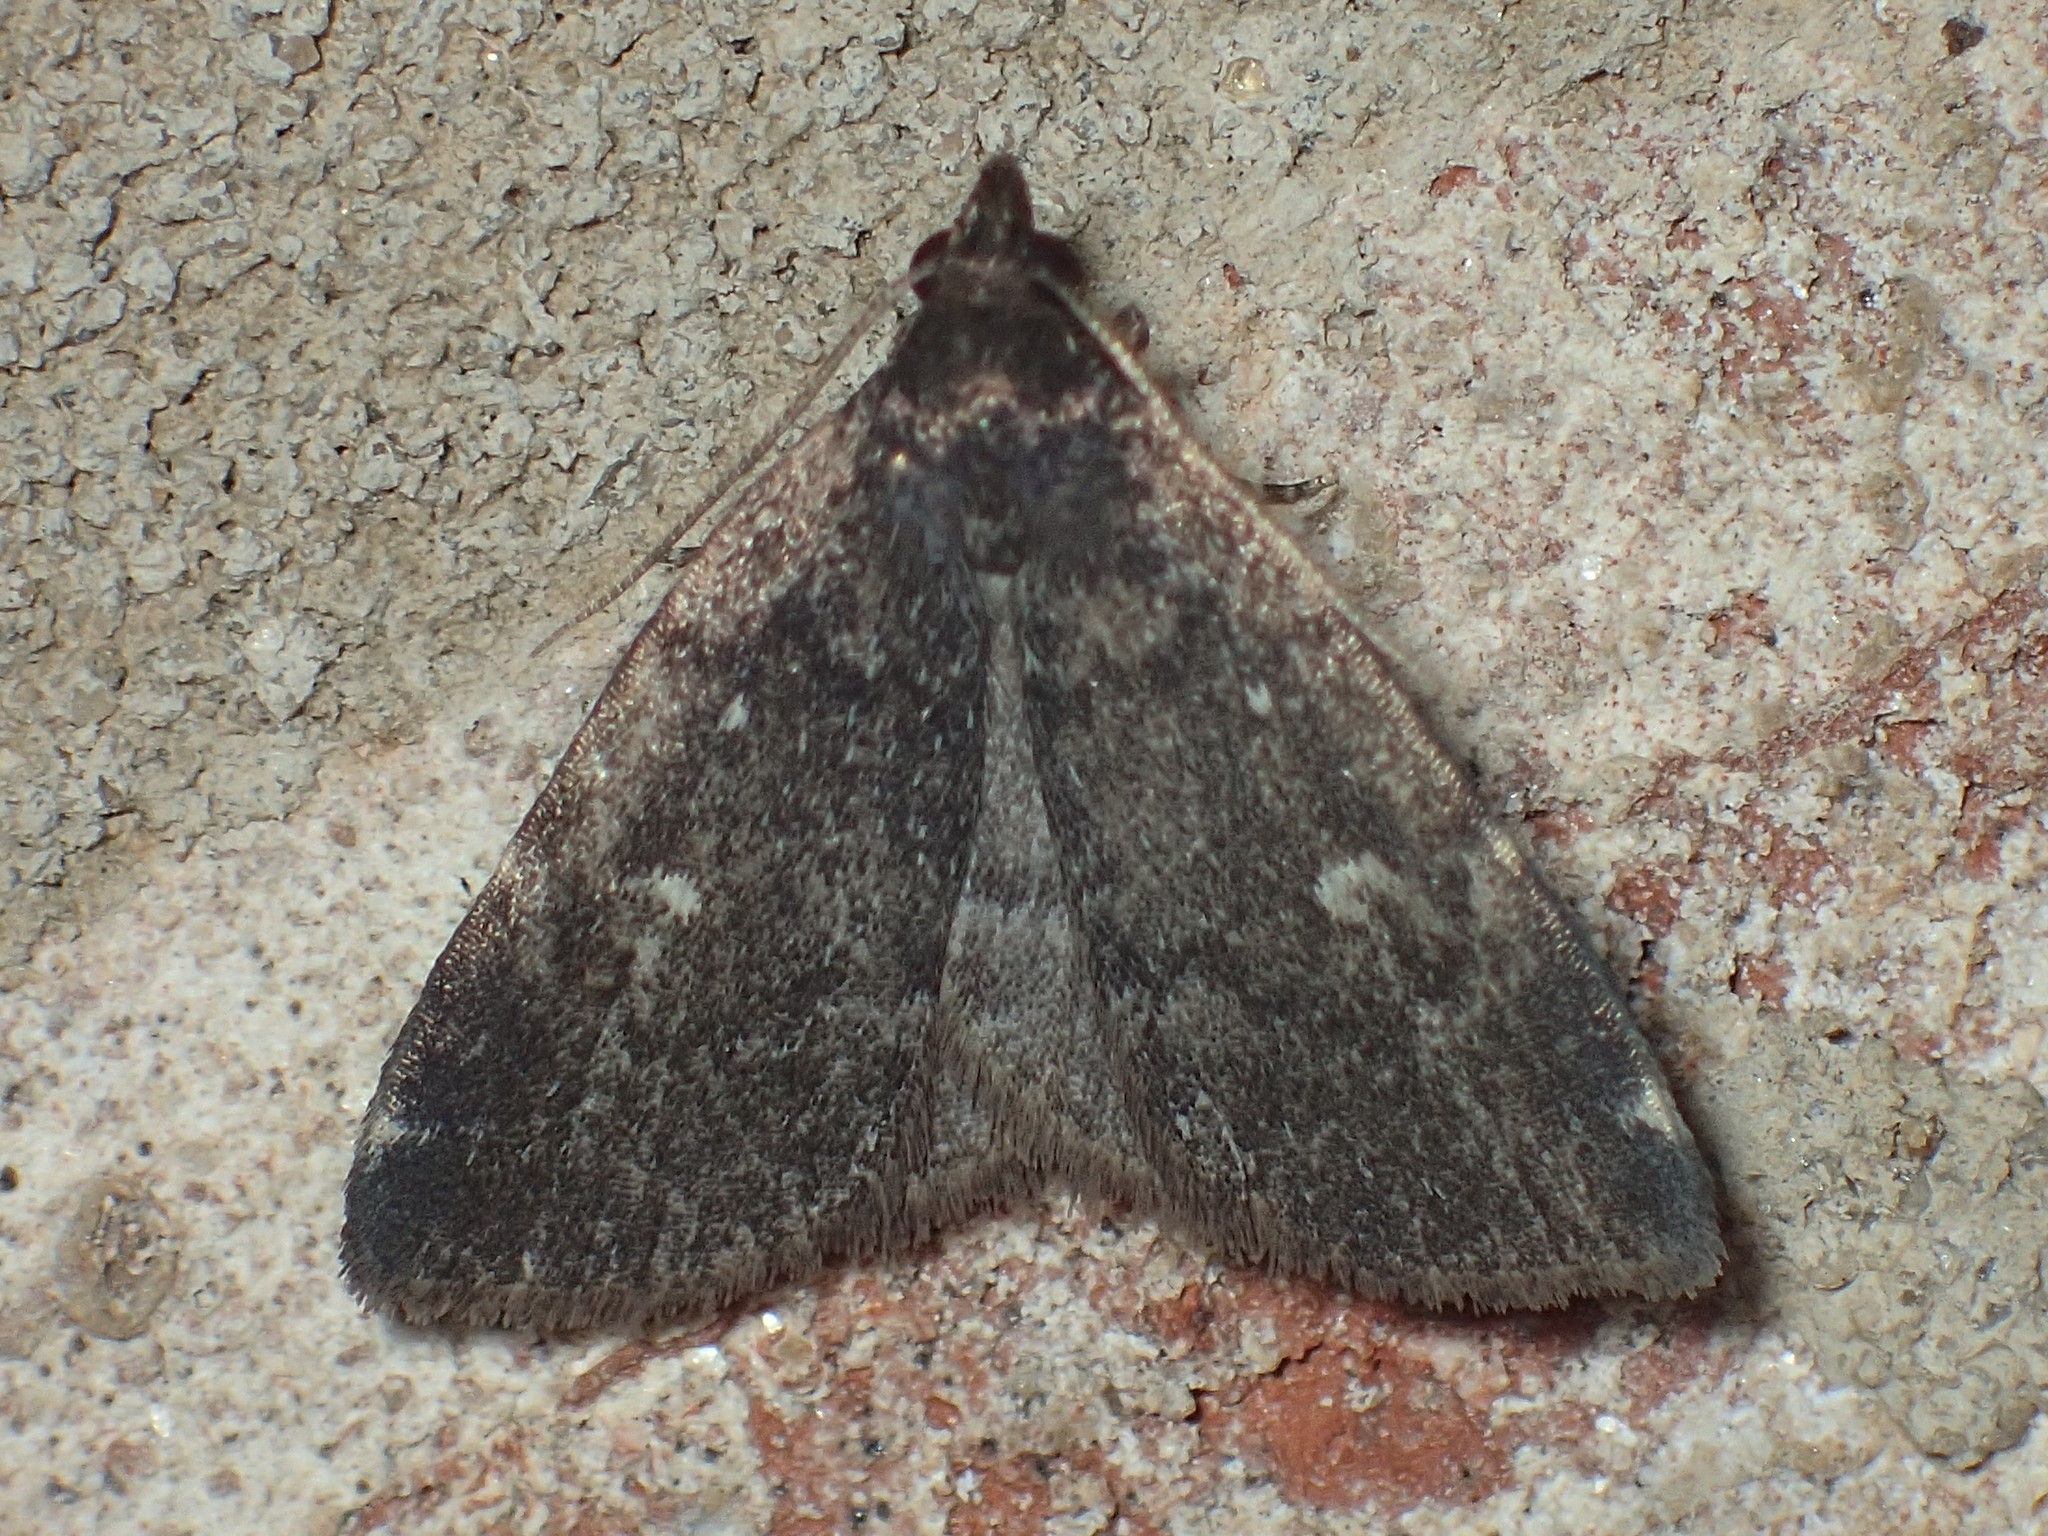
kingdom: Animalia
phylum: Arthropoda
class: Insecta
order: Lepidoptera
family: Erebidae
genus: Idia
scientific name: Idia julia
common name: Julia's idia moth
